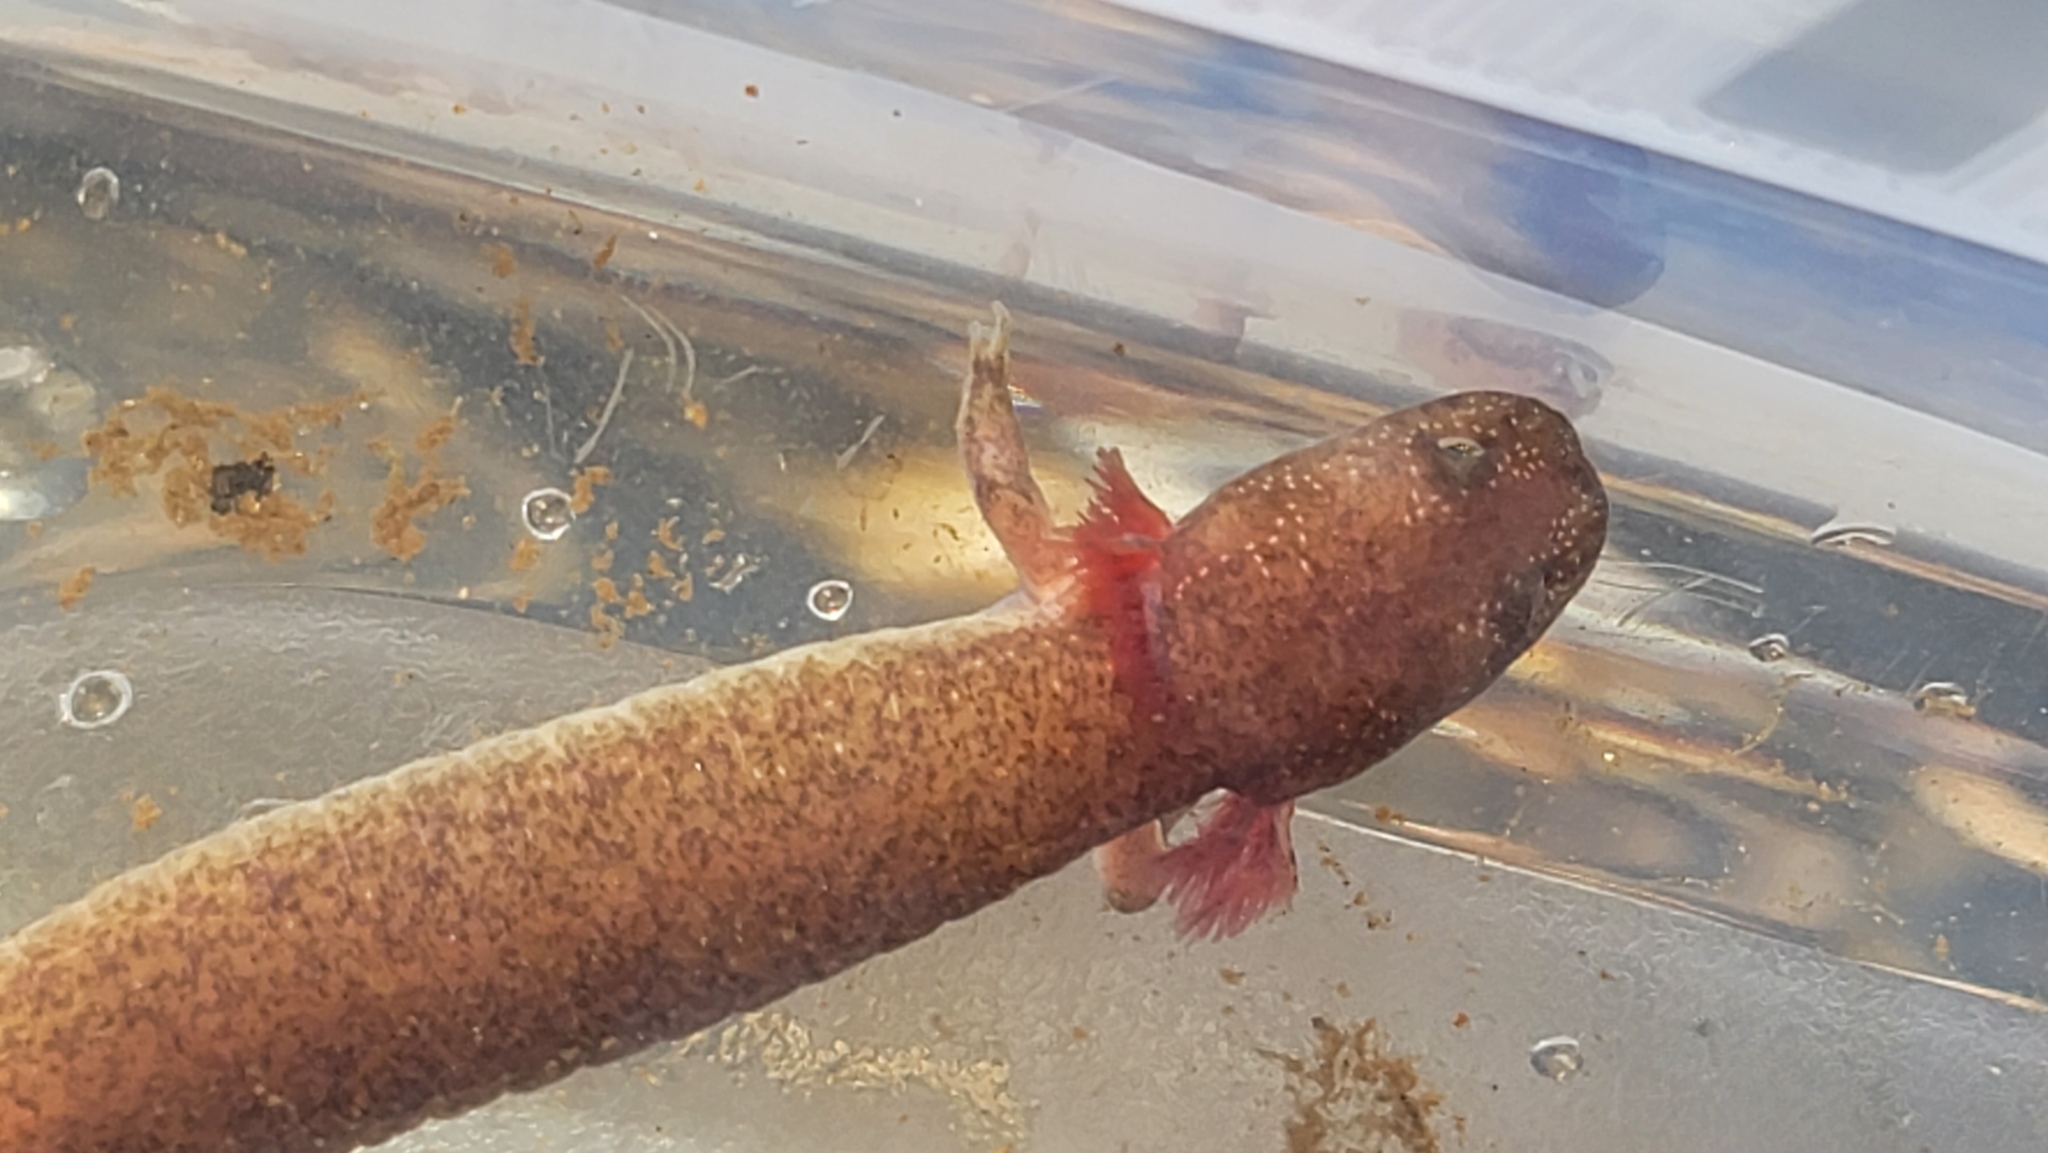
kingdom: Animalia
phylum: Chordata
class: Amphibia
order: Caudata
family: Plethodontidae
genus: Gyrinophilus
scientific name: Gyrinophilus porphyriticus
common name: Spring salamander
